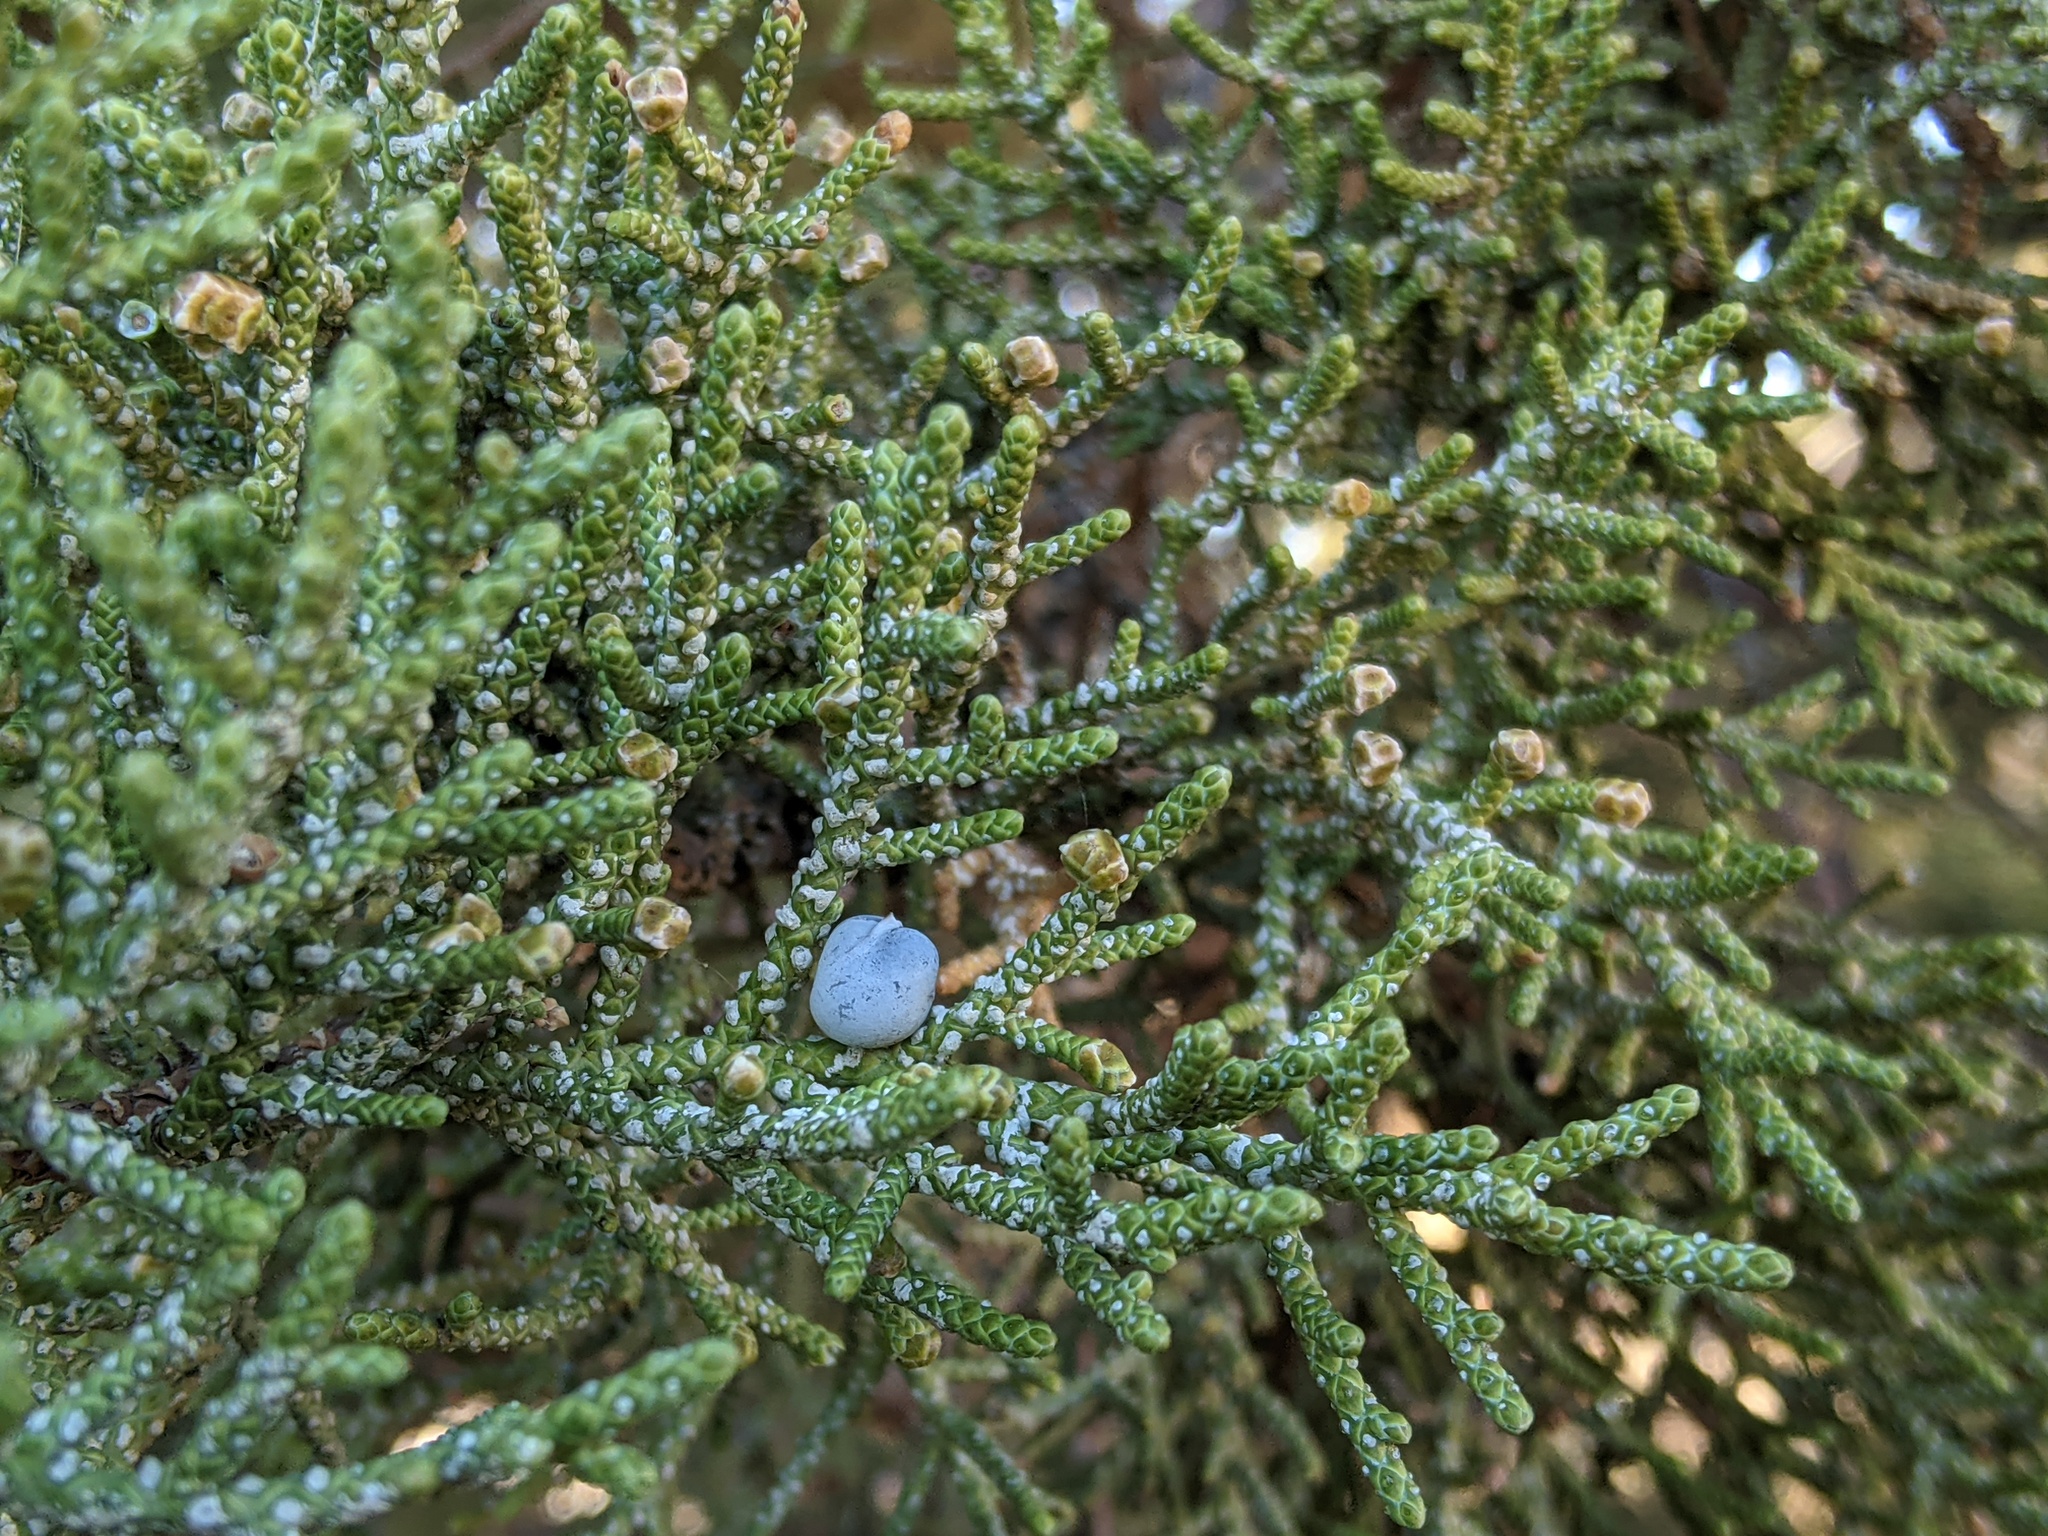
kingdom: Plantae
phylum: Tracheophyta
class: Pinopsida
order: Pinales
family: Cupressaceae
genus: Juniperus
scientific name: Juniperus occidentalis
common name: Western juniper
